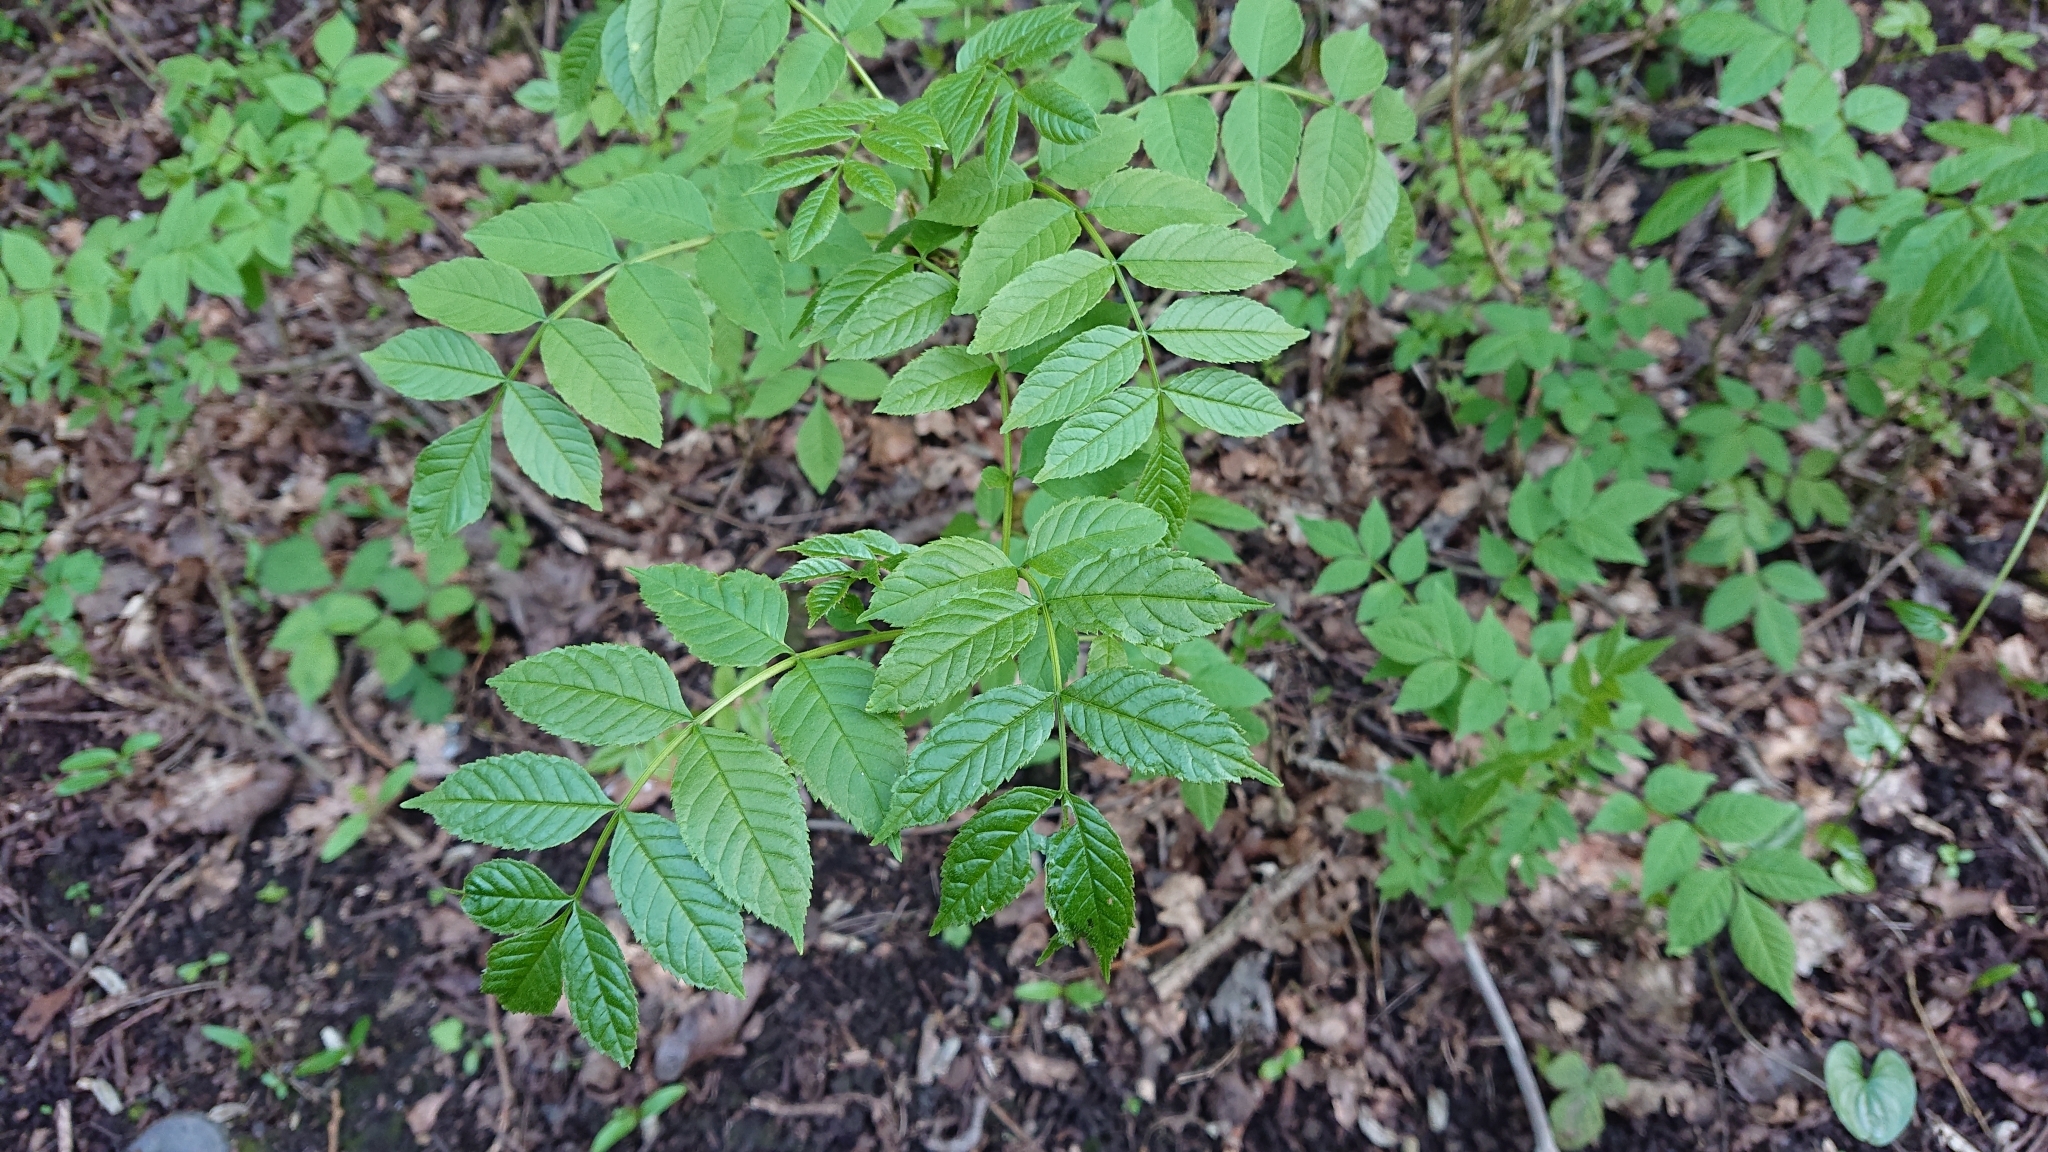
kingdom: Plantae
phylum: Tracheophyta
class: Magnoliopsida
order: Lamiales
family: Oleaceae
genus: Fraxinus
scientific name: Fraxinus excelsior
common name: European ash
